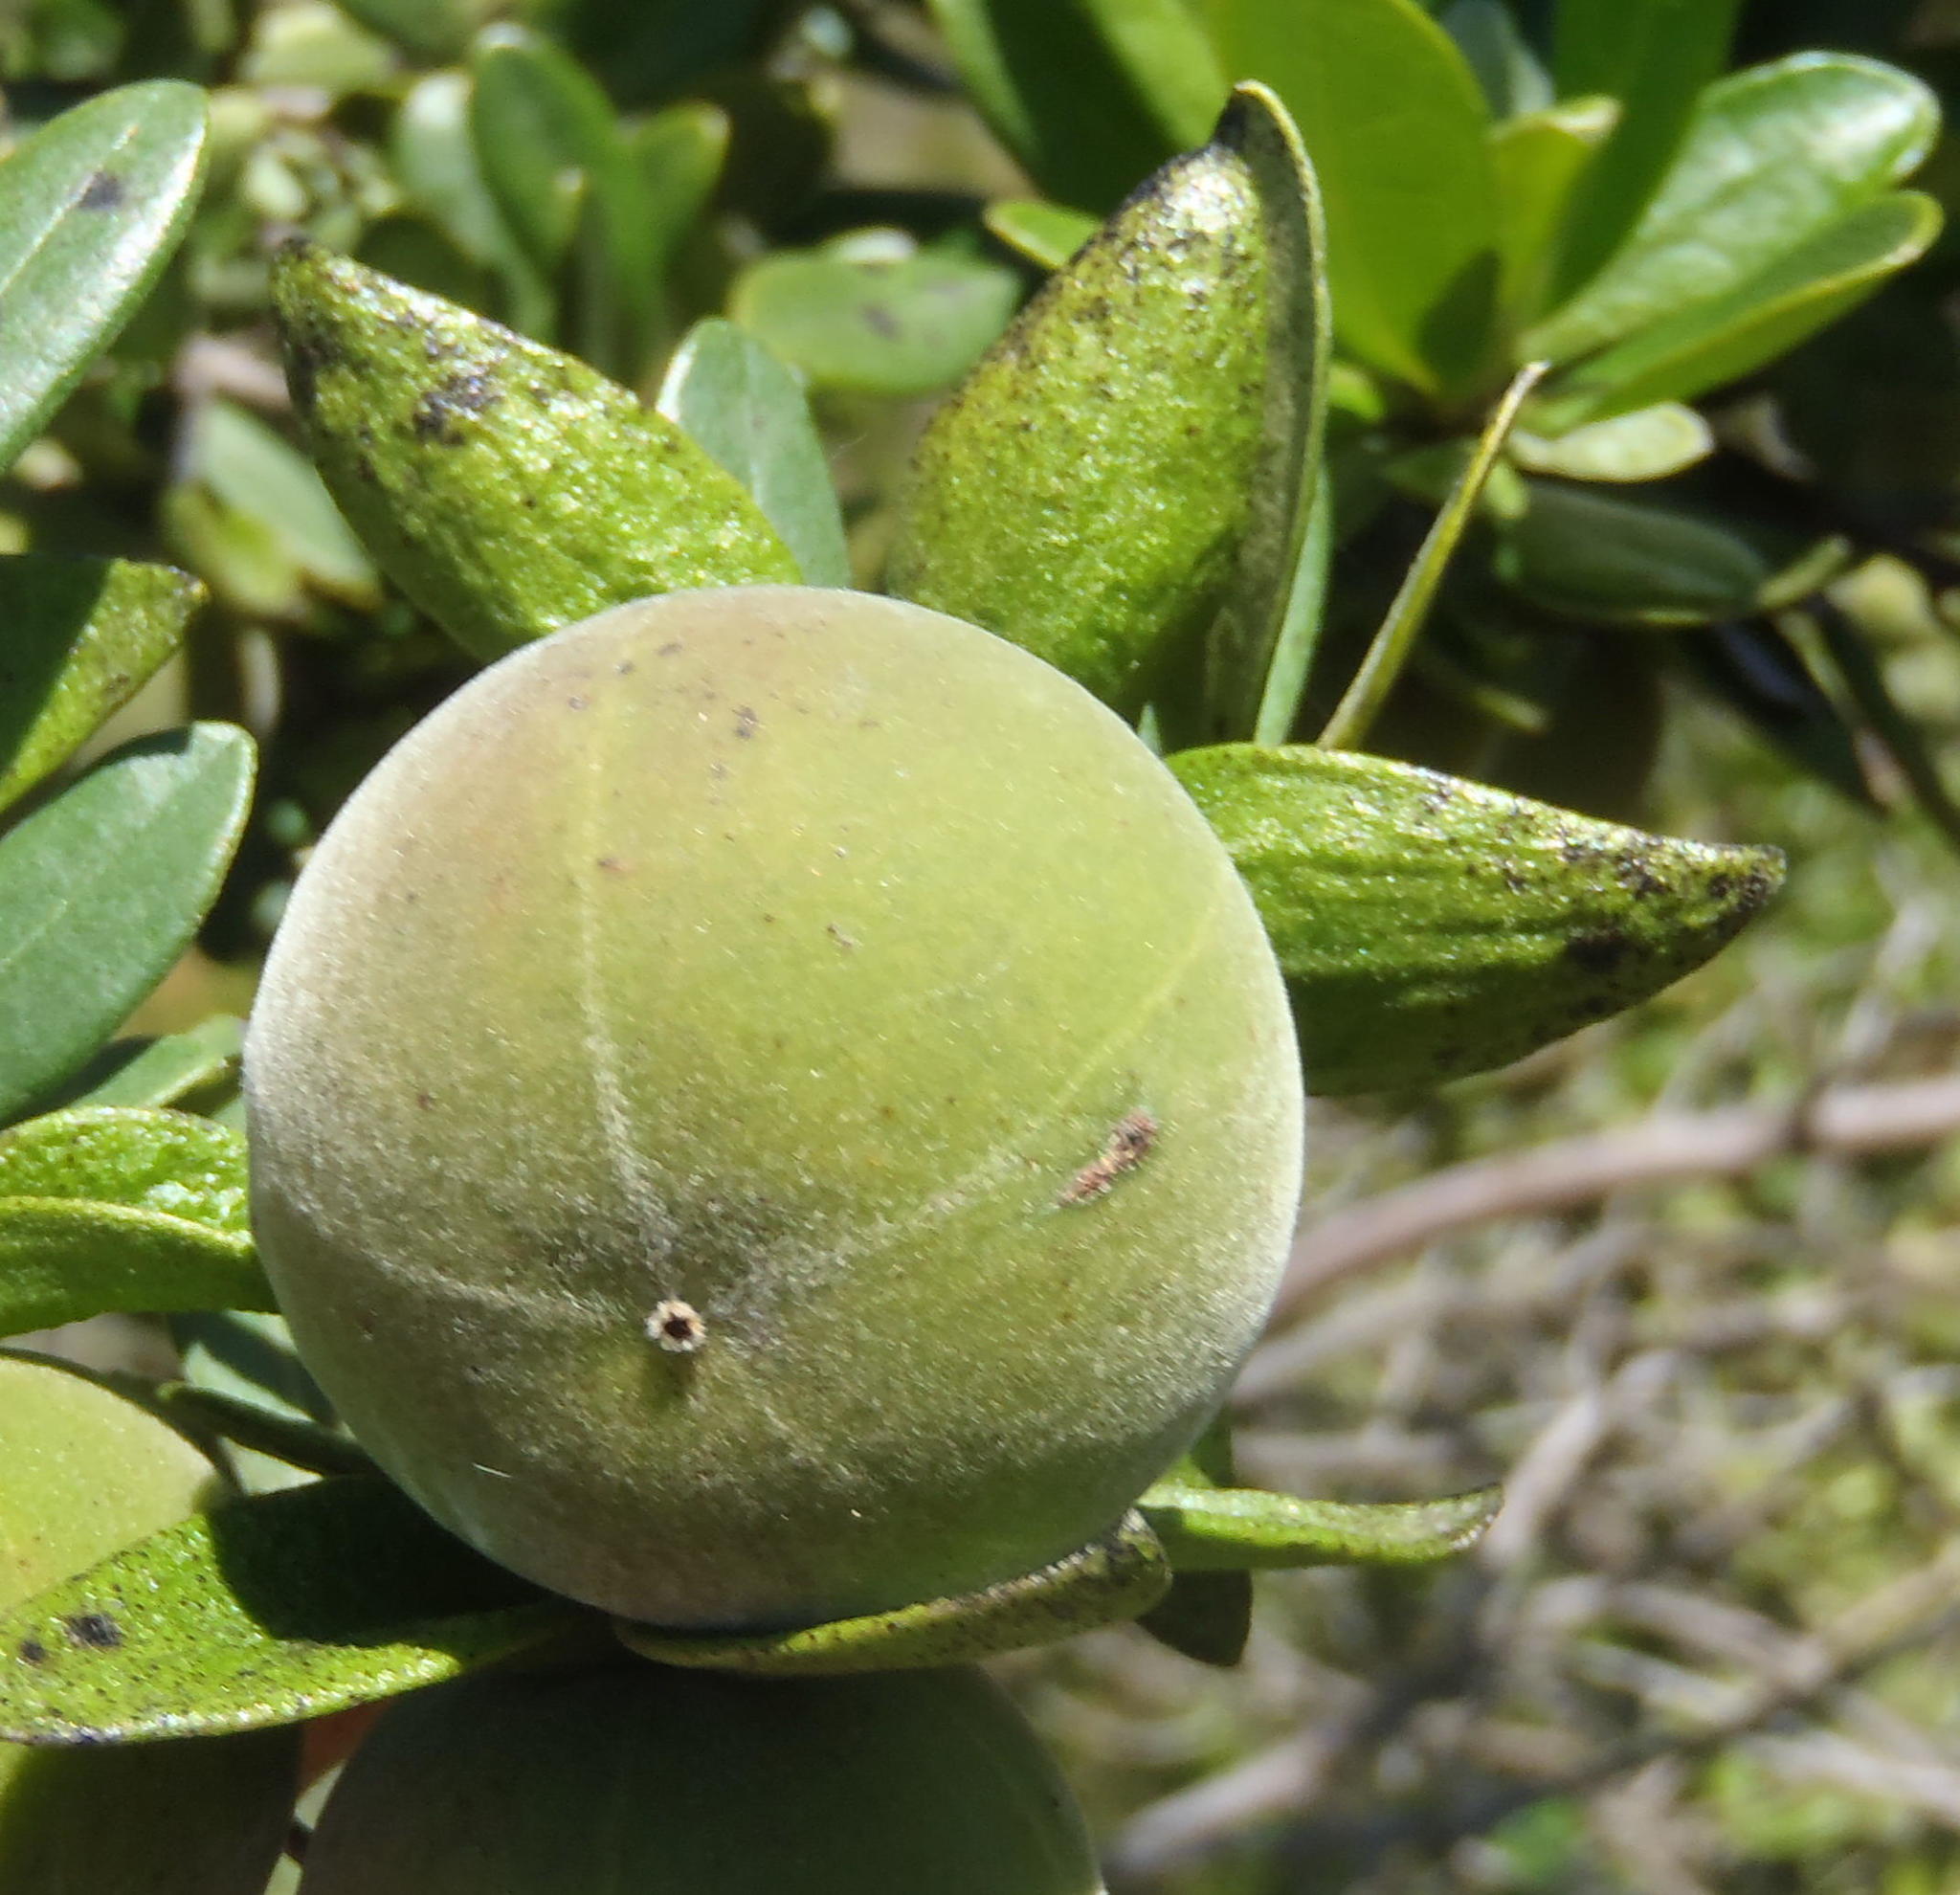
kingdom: Plantae
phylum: Tracheophyta
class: Magnoliopsida
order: Ericales
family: Ebenaceae
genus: Diospyros
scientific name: Diospyros dichrophylla
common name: Common star-apple
